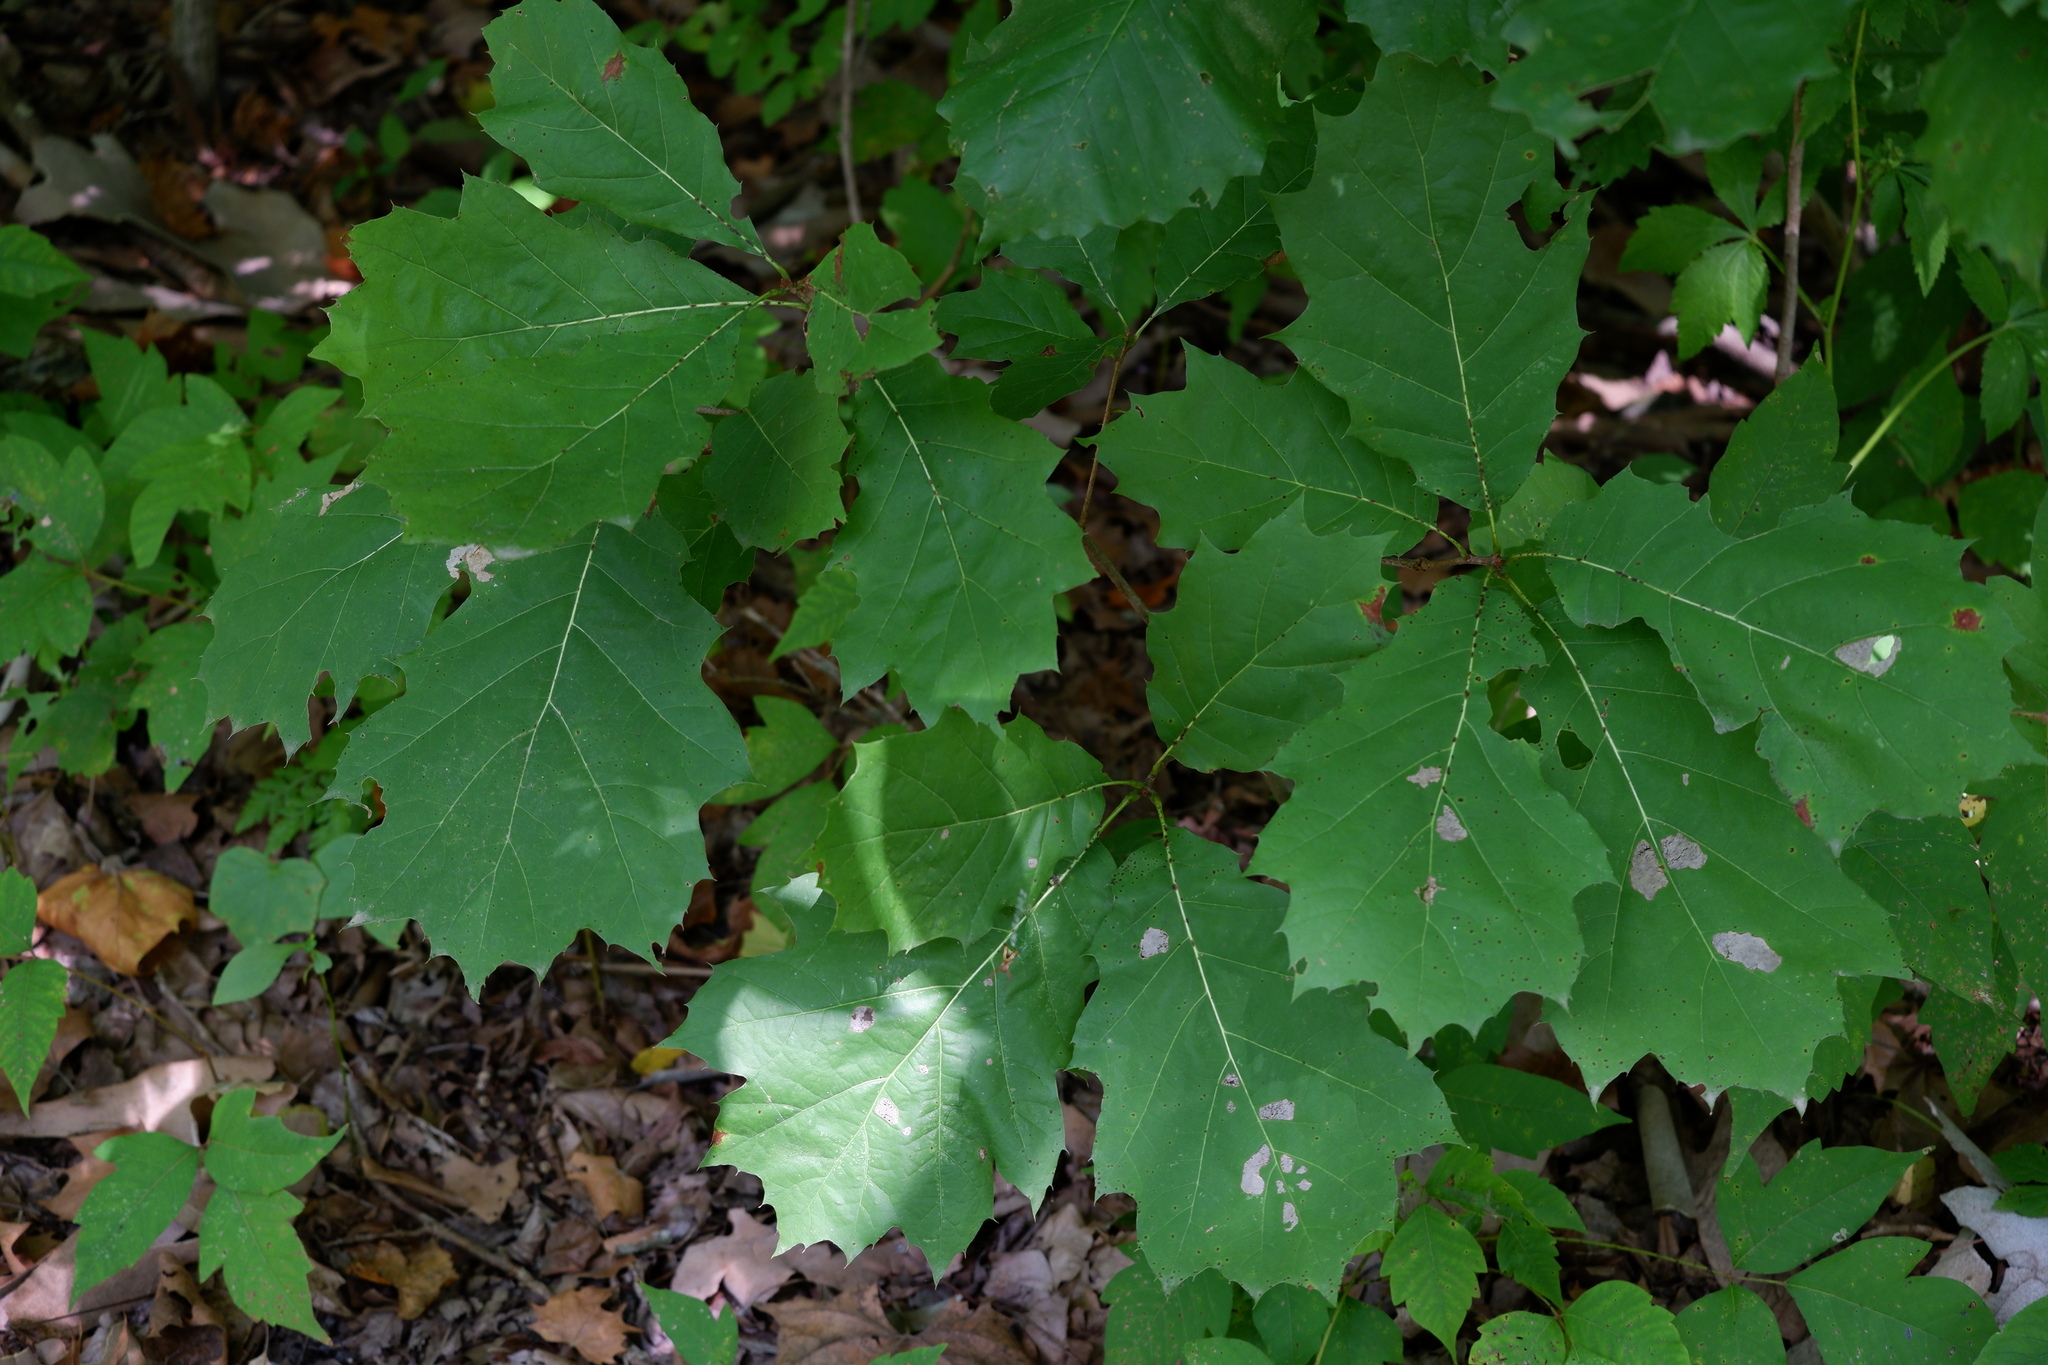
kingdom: Plantae
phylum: Tracheophyta
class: Magnoliopsida
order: Fagales
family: Fagaceae
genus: Quercus
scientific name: Quercus rubra
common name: Red oak
